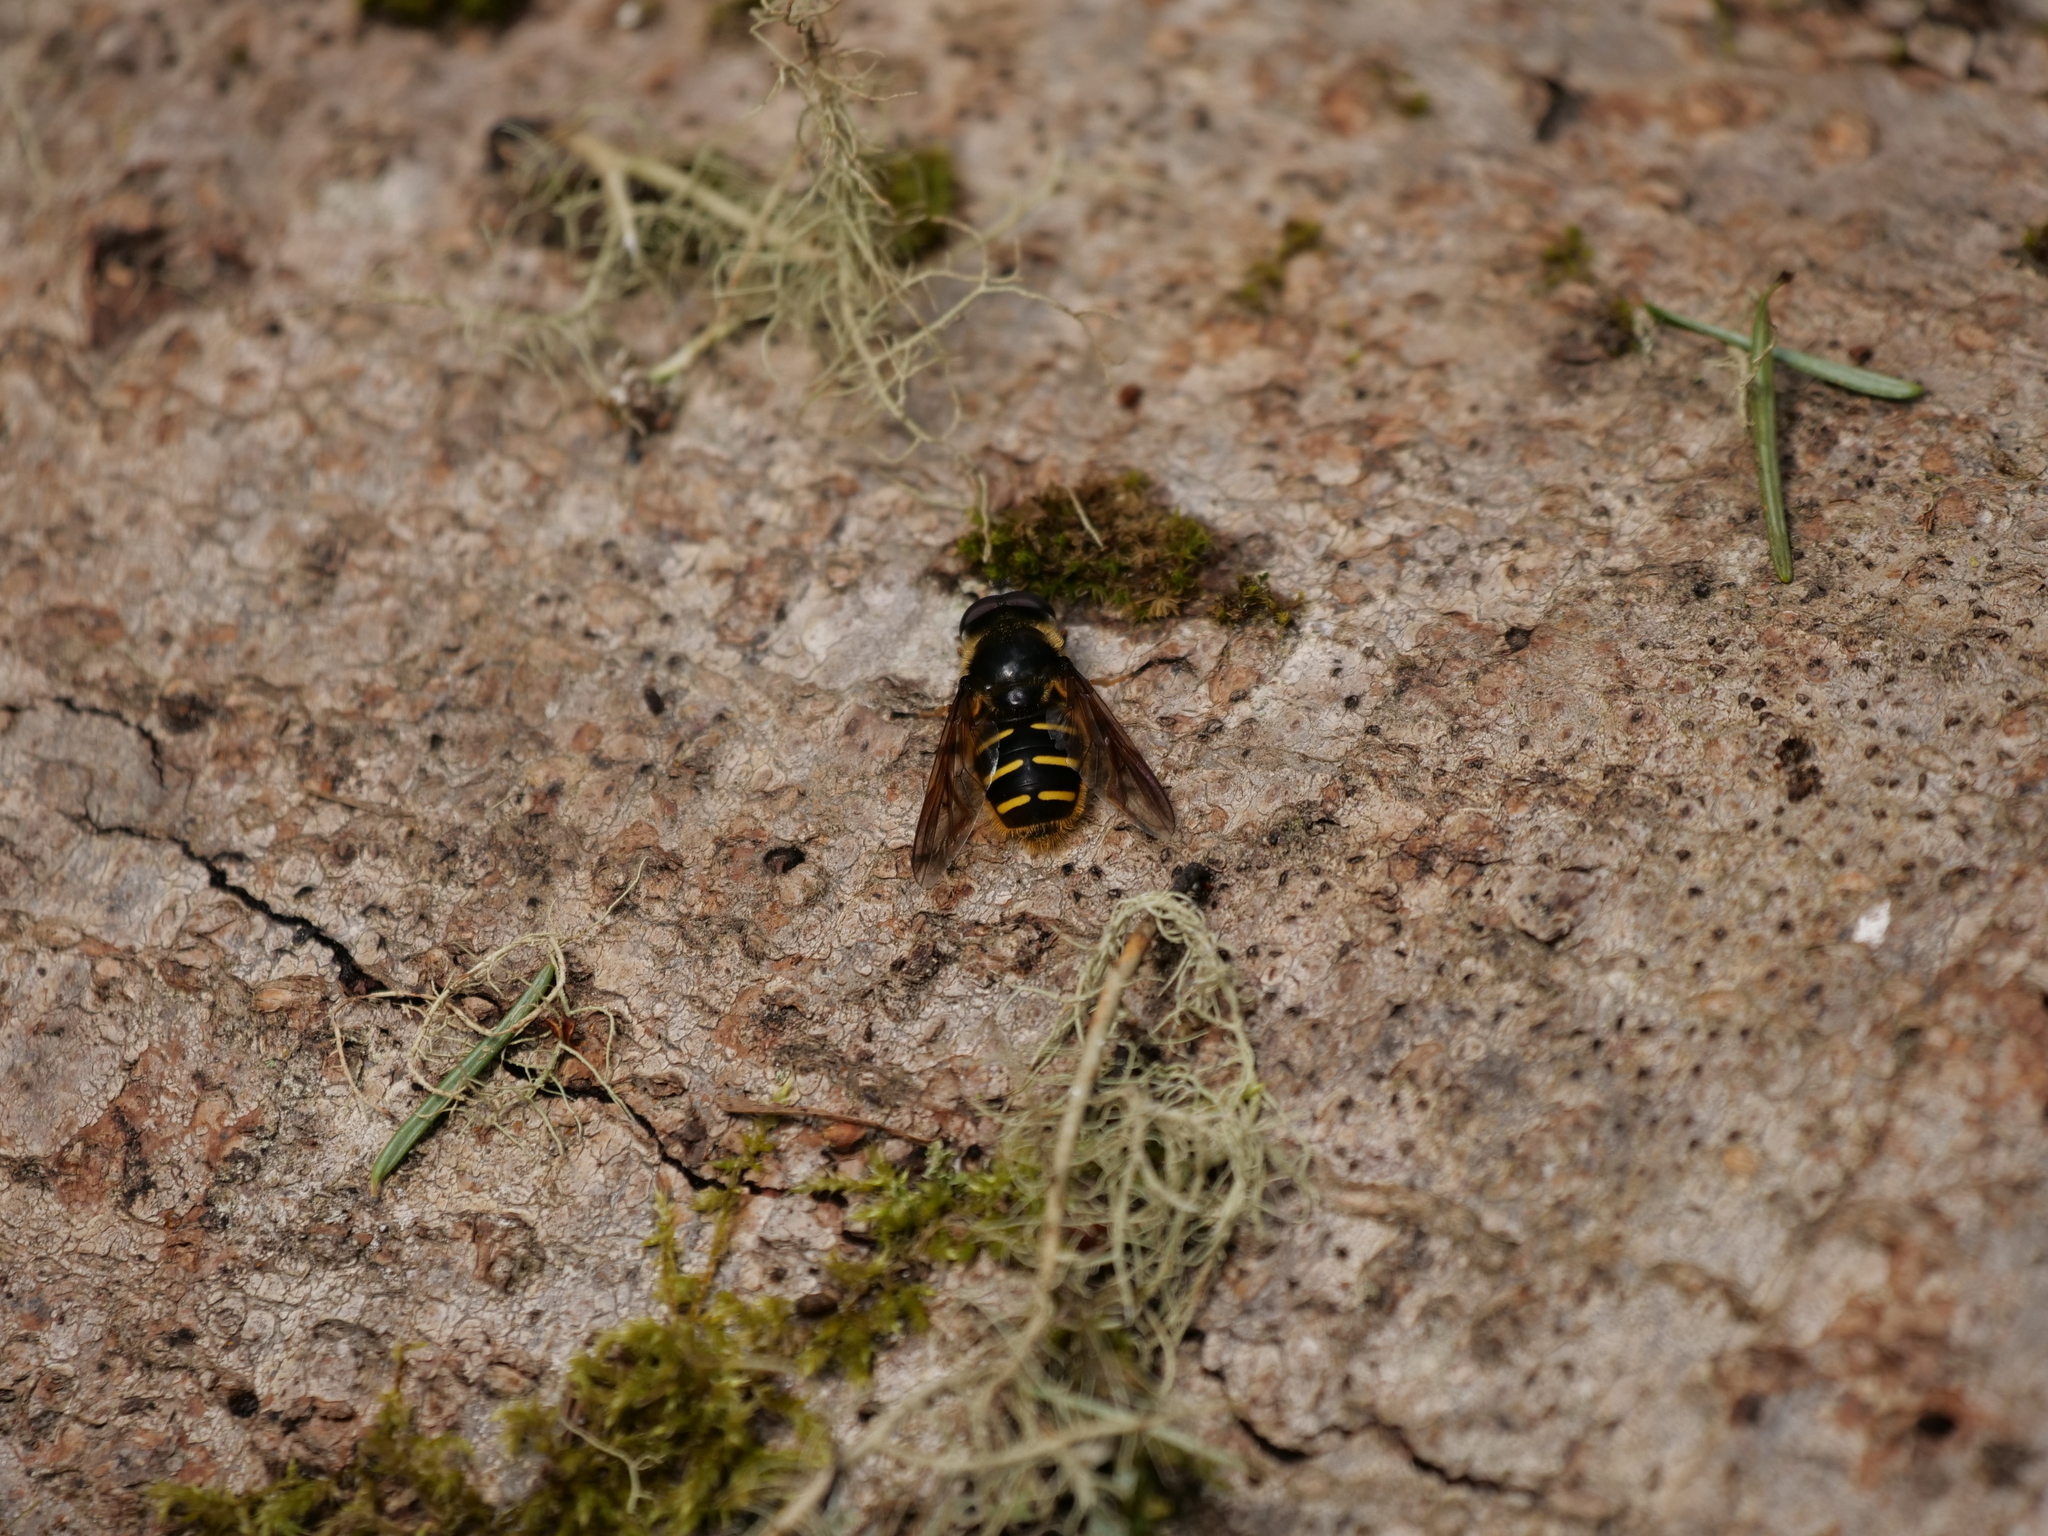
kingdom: Animalia
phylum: Arthropoda
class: Insecta
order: Diptera
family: Syrphidae
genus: Sericomyia
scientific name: Sericomyia chalcopyga
